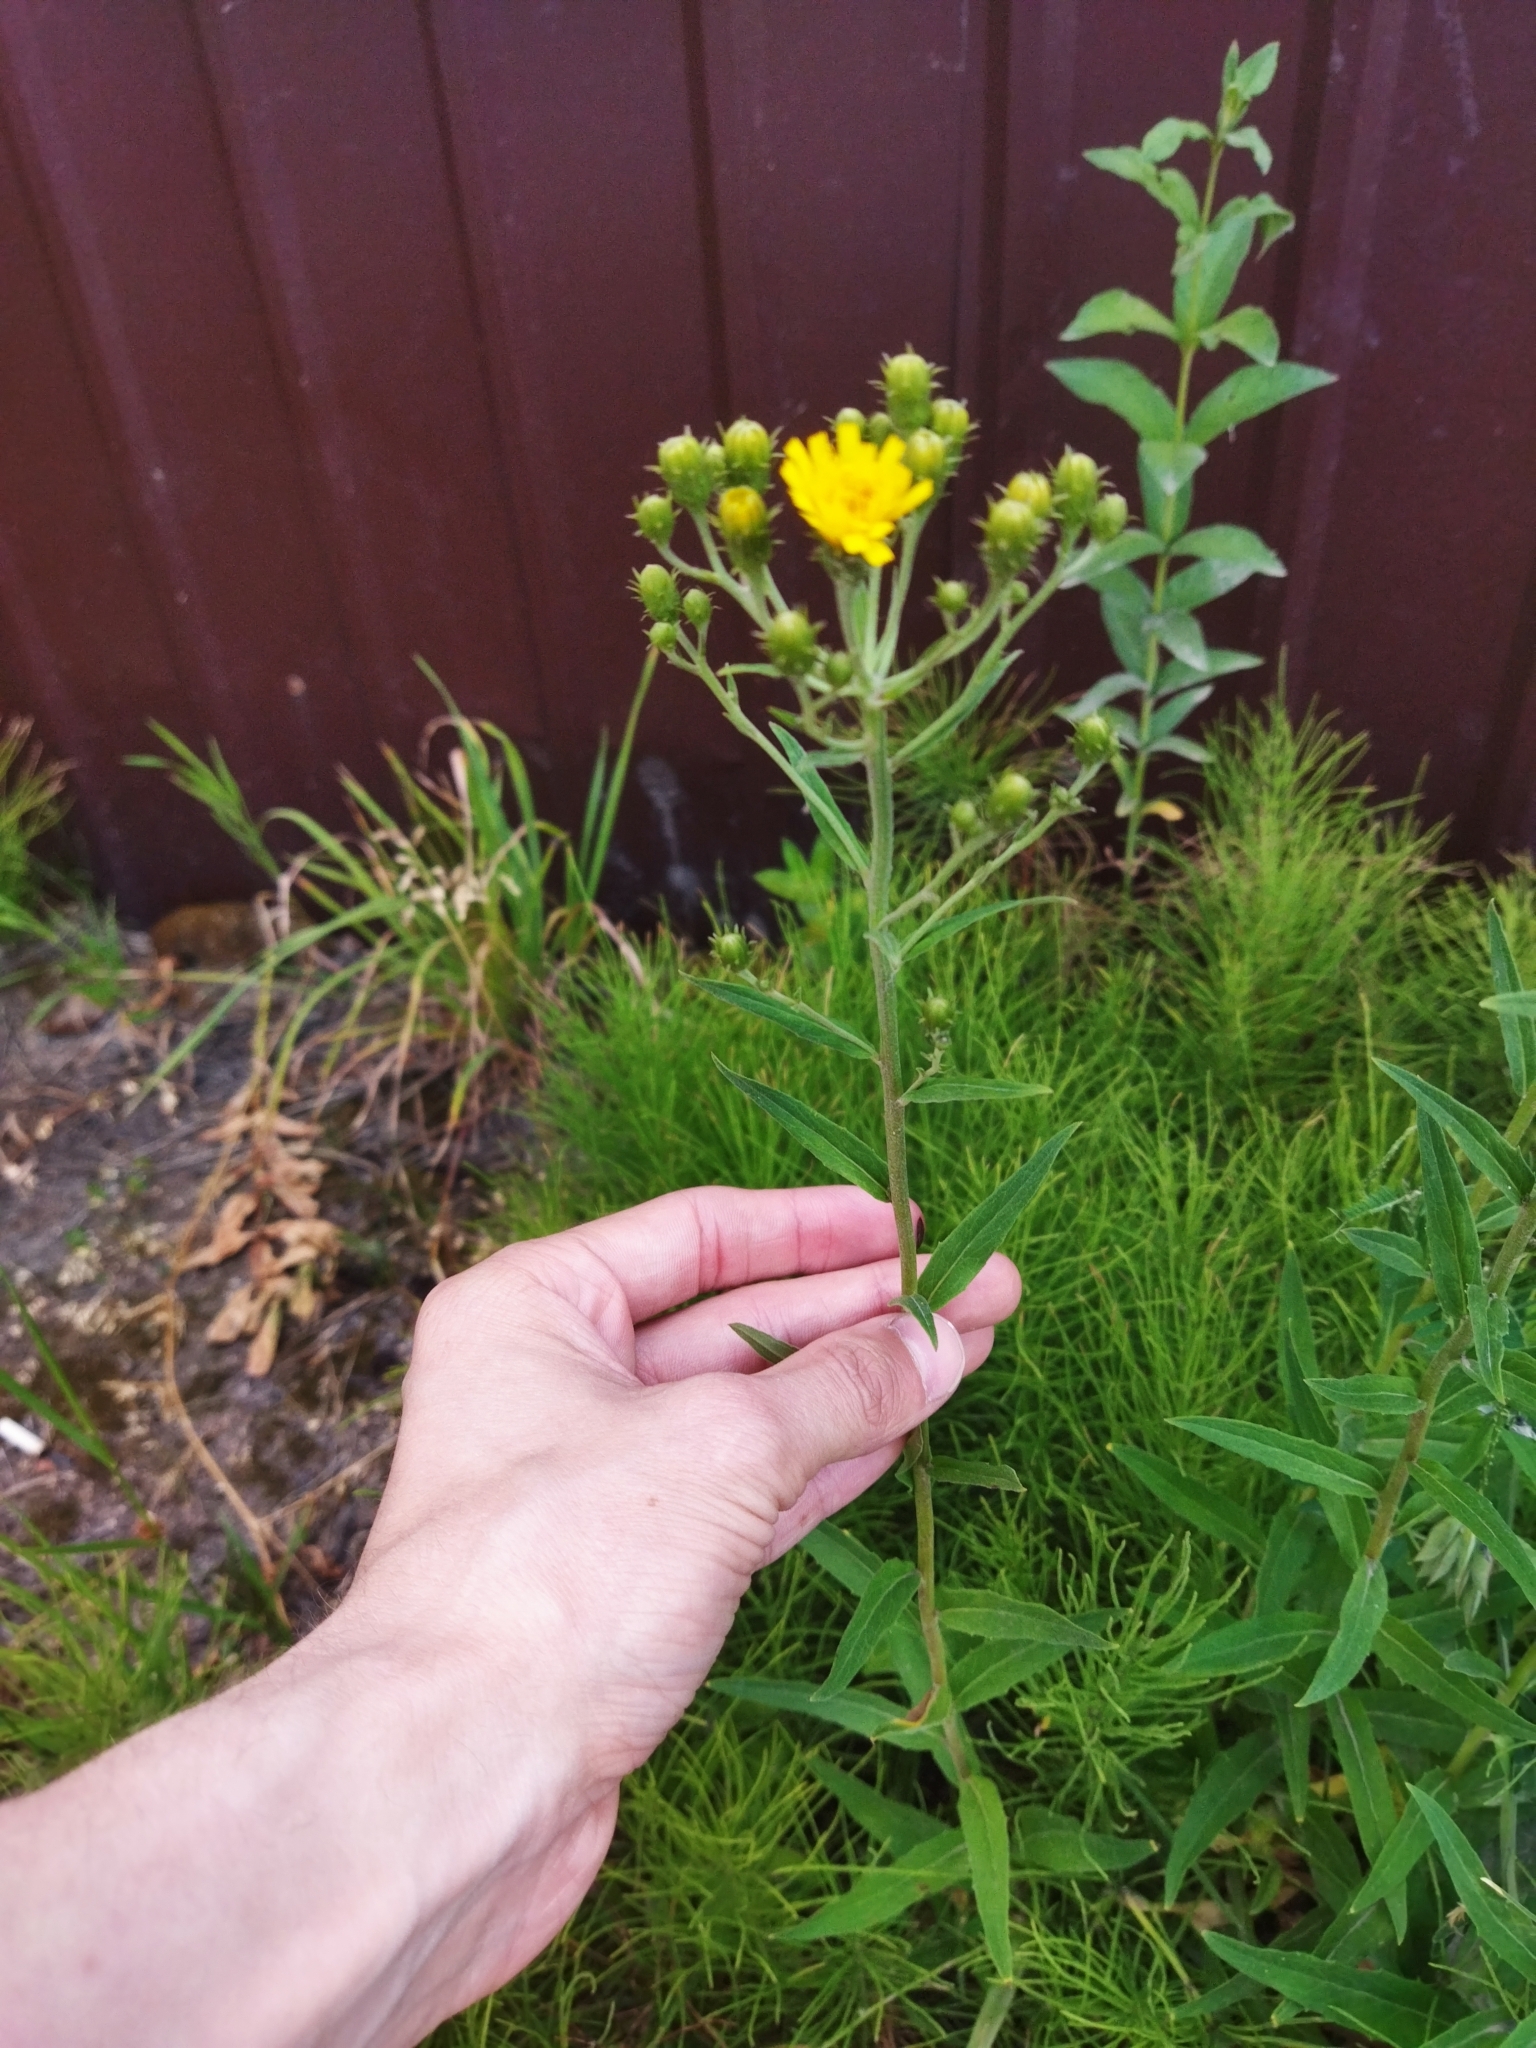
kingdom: Plantae
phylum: Tracheophyta
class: Magnoliopsida
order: Asterales
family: Asteraceae
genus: Hieracium
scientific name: Hieracium umbellatum
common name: Northern hawkweed
